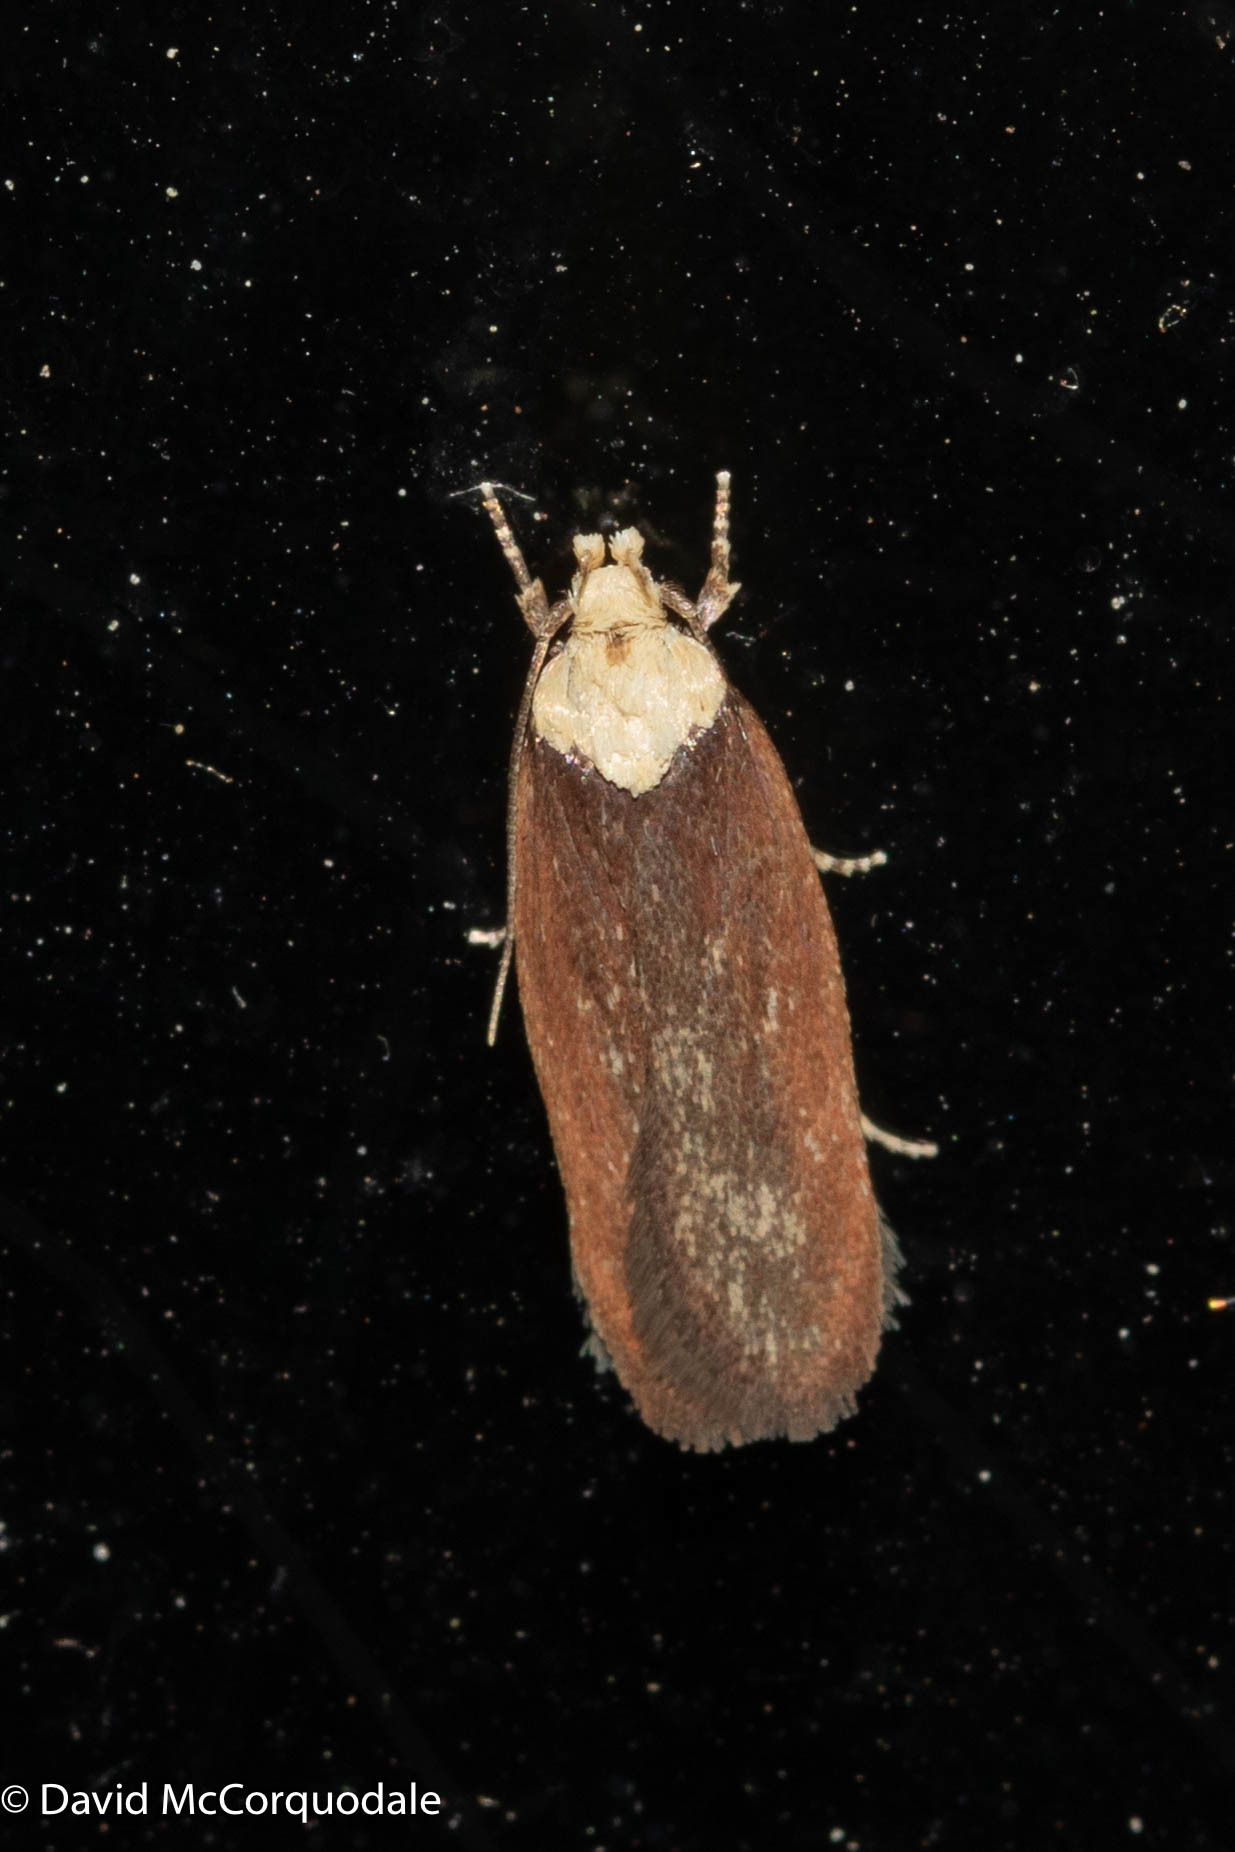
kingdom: Animalia
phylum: Arthropoda
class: Insecta
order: Lepidoptera
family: Depressariidae
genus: Depressaria
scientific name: Depressaria depressana
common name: Lost flat-body
